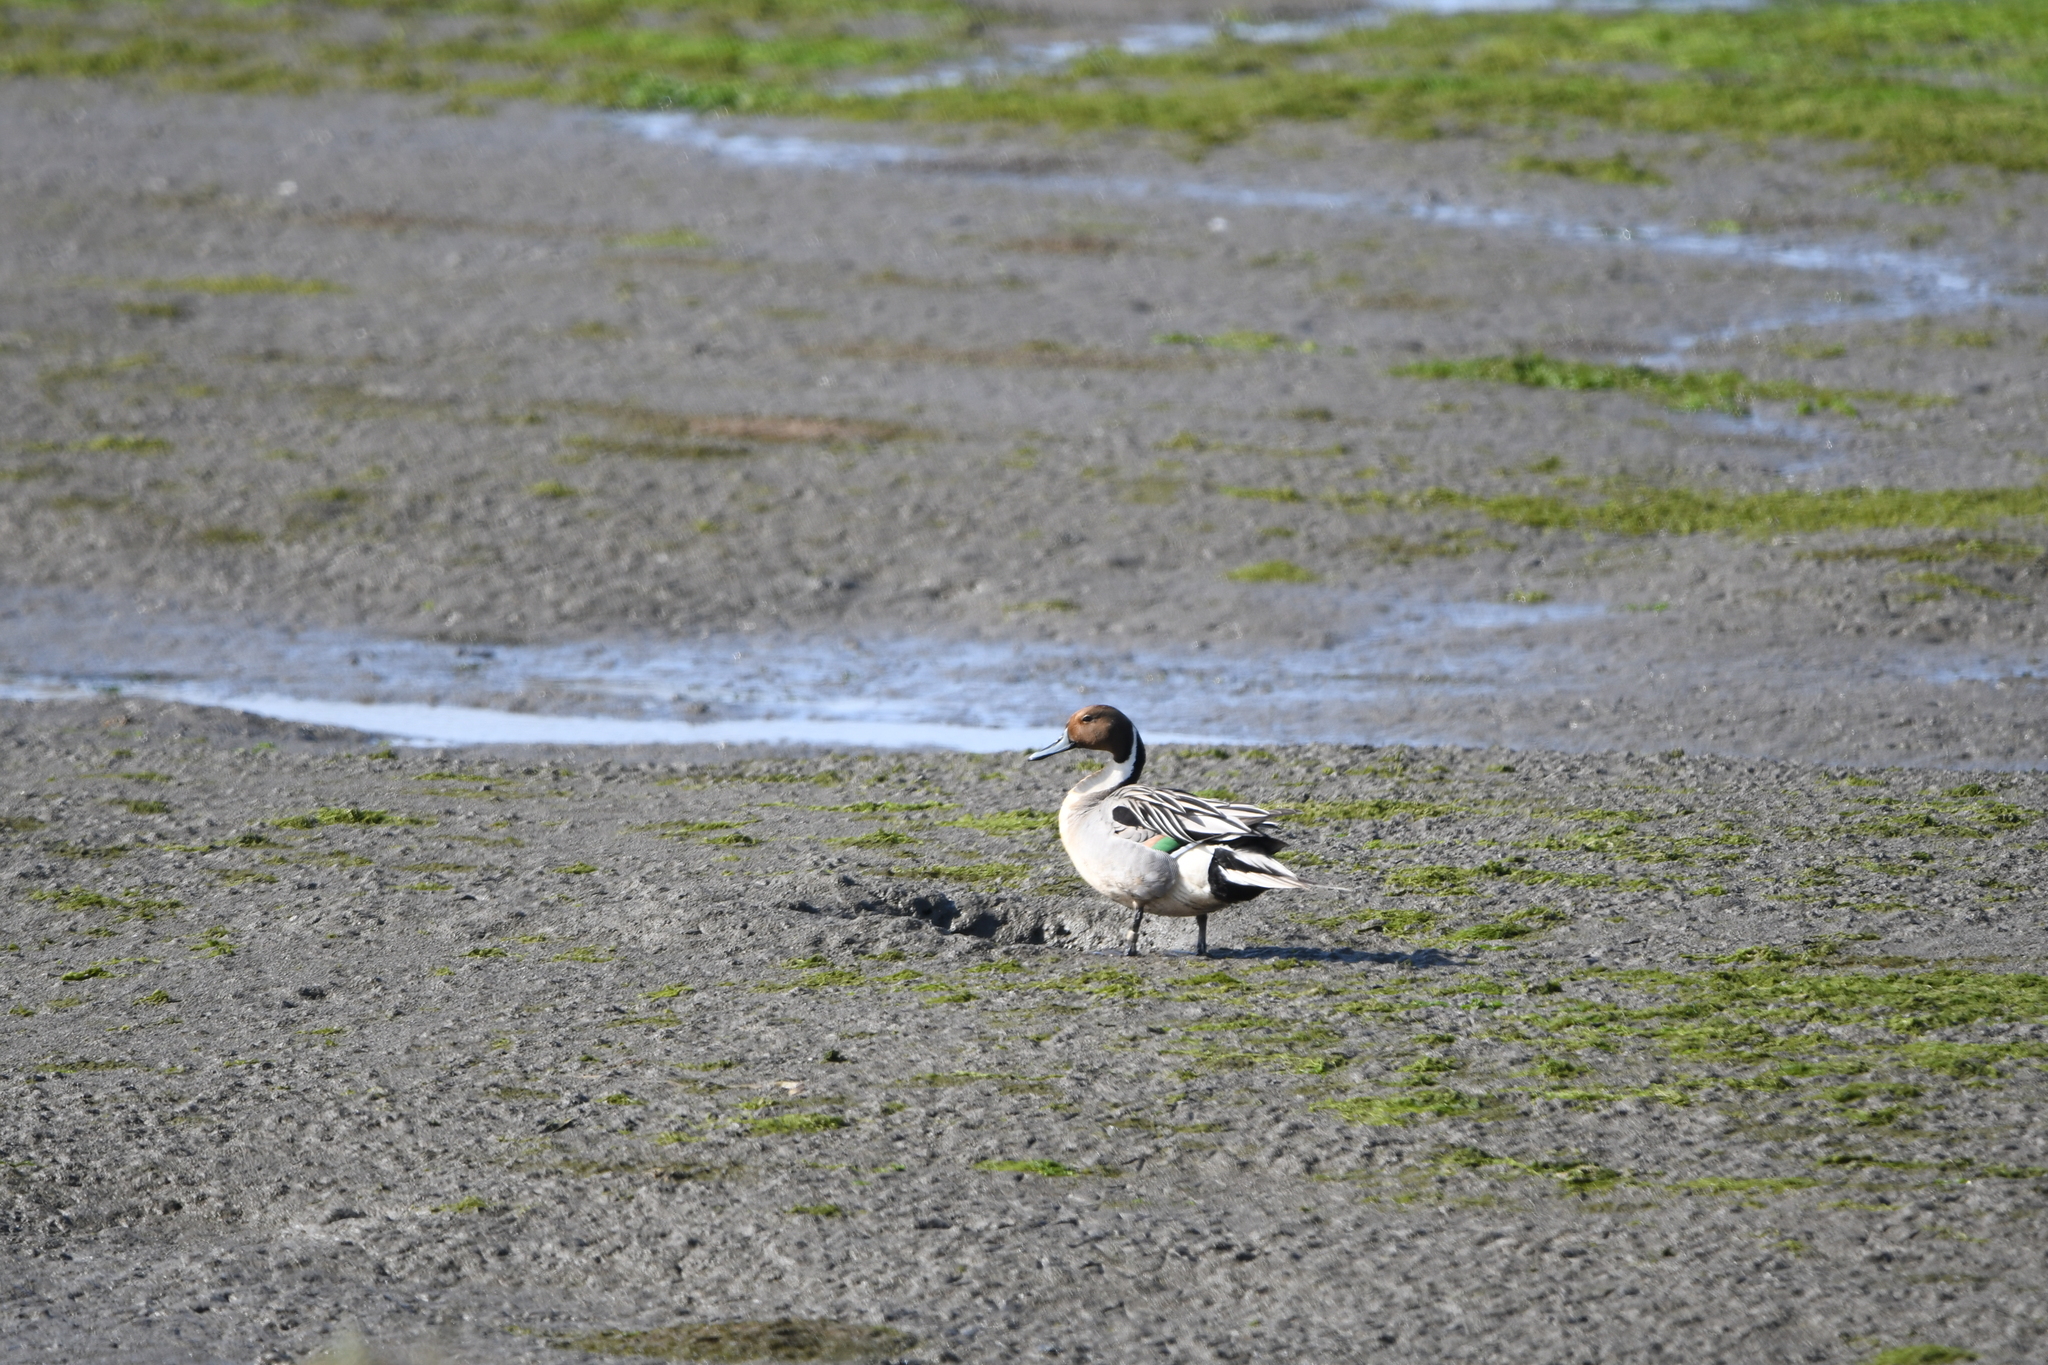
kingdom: Animalia
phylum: Chordata
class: Aves
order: Anseriformes
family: Anatidae
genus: Anas
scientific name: Anas acuta
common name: Northern pintail
